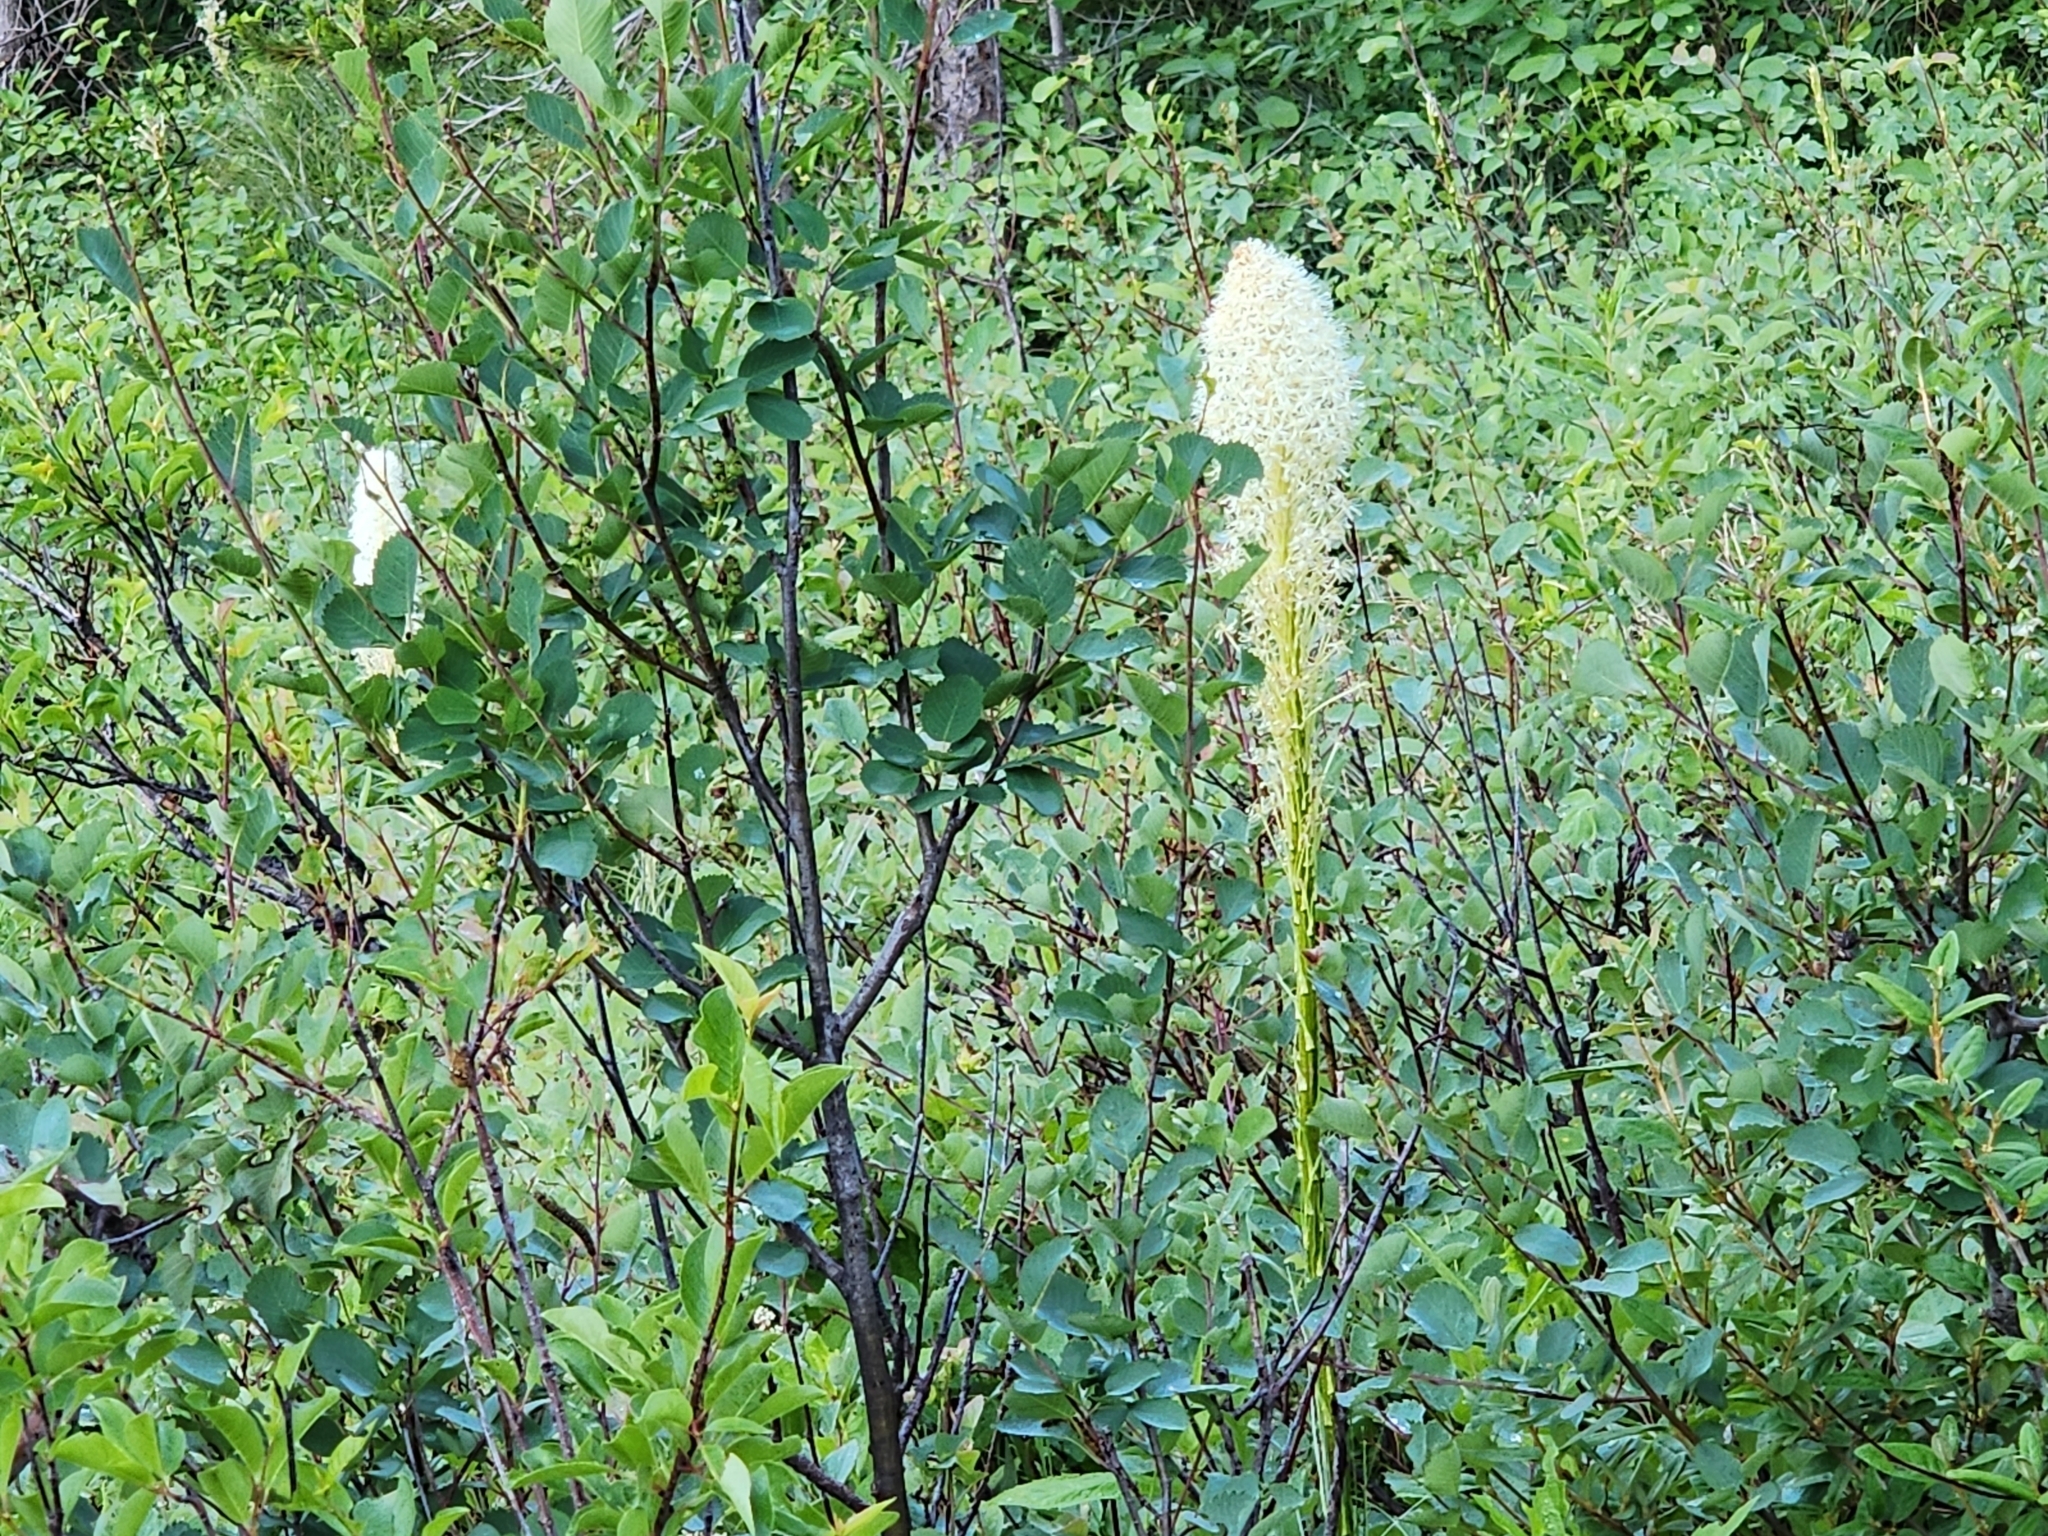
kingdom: Plantae
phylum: Tracheophyta
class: Liliopsida
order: Liliales
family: Melanthiaceae
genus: Xerophyllum
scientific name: Xerophyllum tenax
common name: Bear-grass
